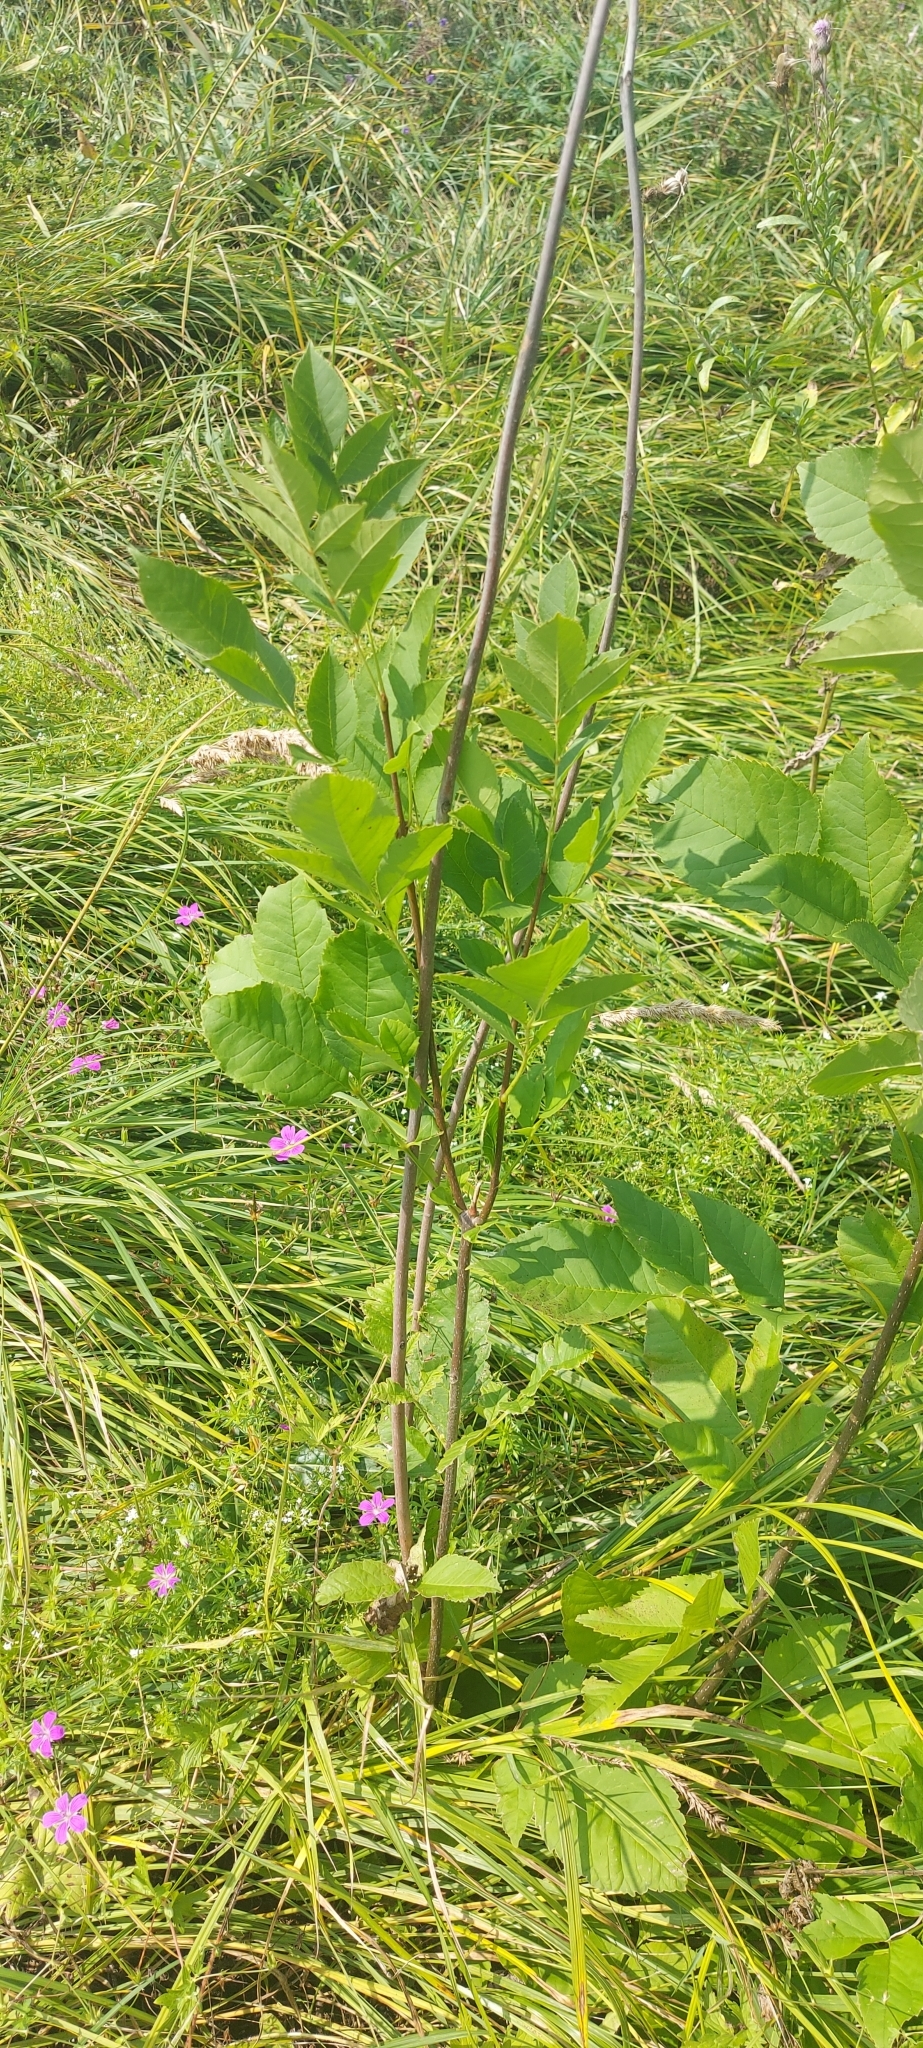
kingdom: Plantae
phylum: Tracheophyta
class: Magnoliopsida
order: Lamiales
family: Oleaceae
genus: Fraxinus
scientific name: Fraxinus pennsylvanica
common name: Green ash
